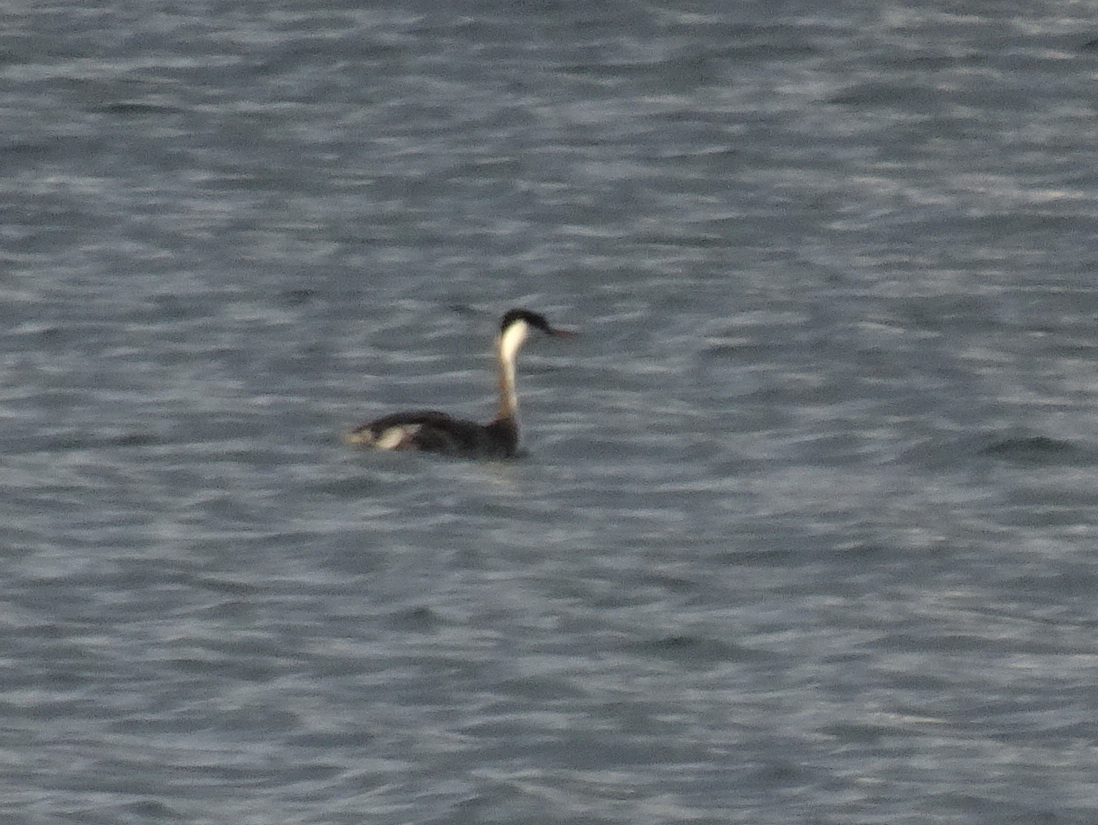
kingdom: Animalia
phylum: Chordata
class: Aves
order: Podicipediformes
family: Podicipedidae
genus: Aechmophorus
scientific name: Aechmophorus occidentalis
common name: Western grebe
